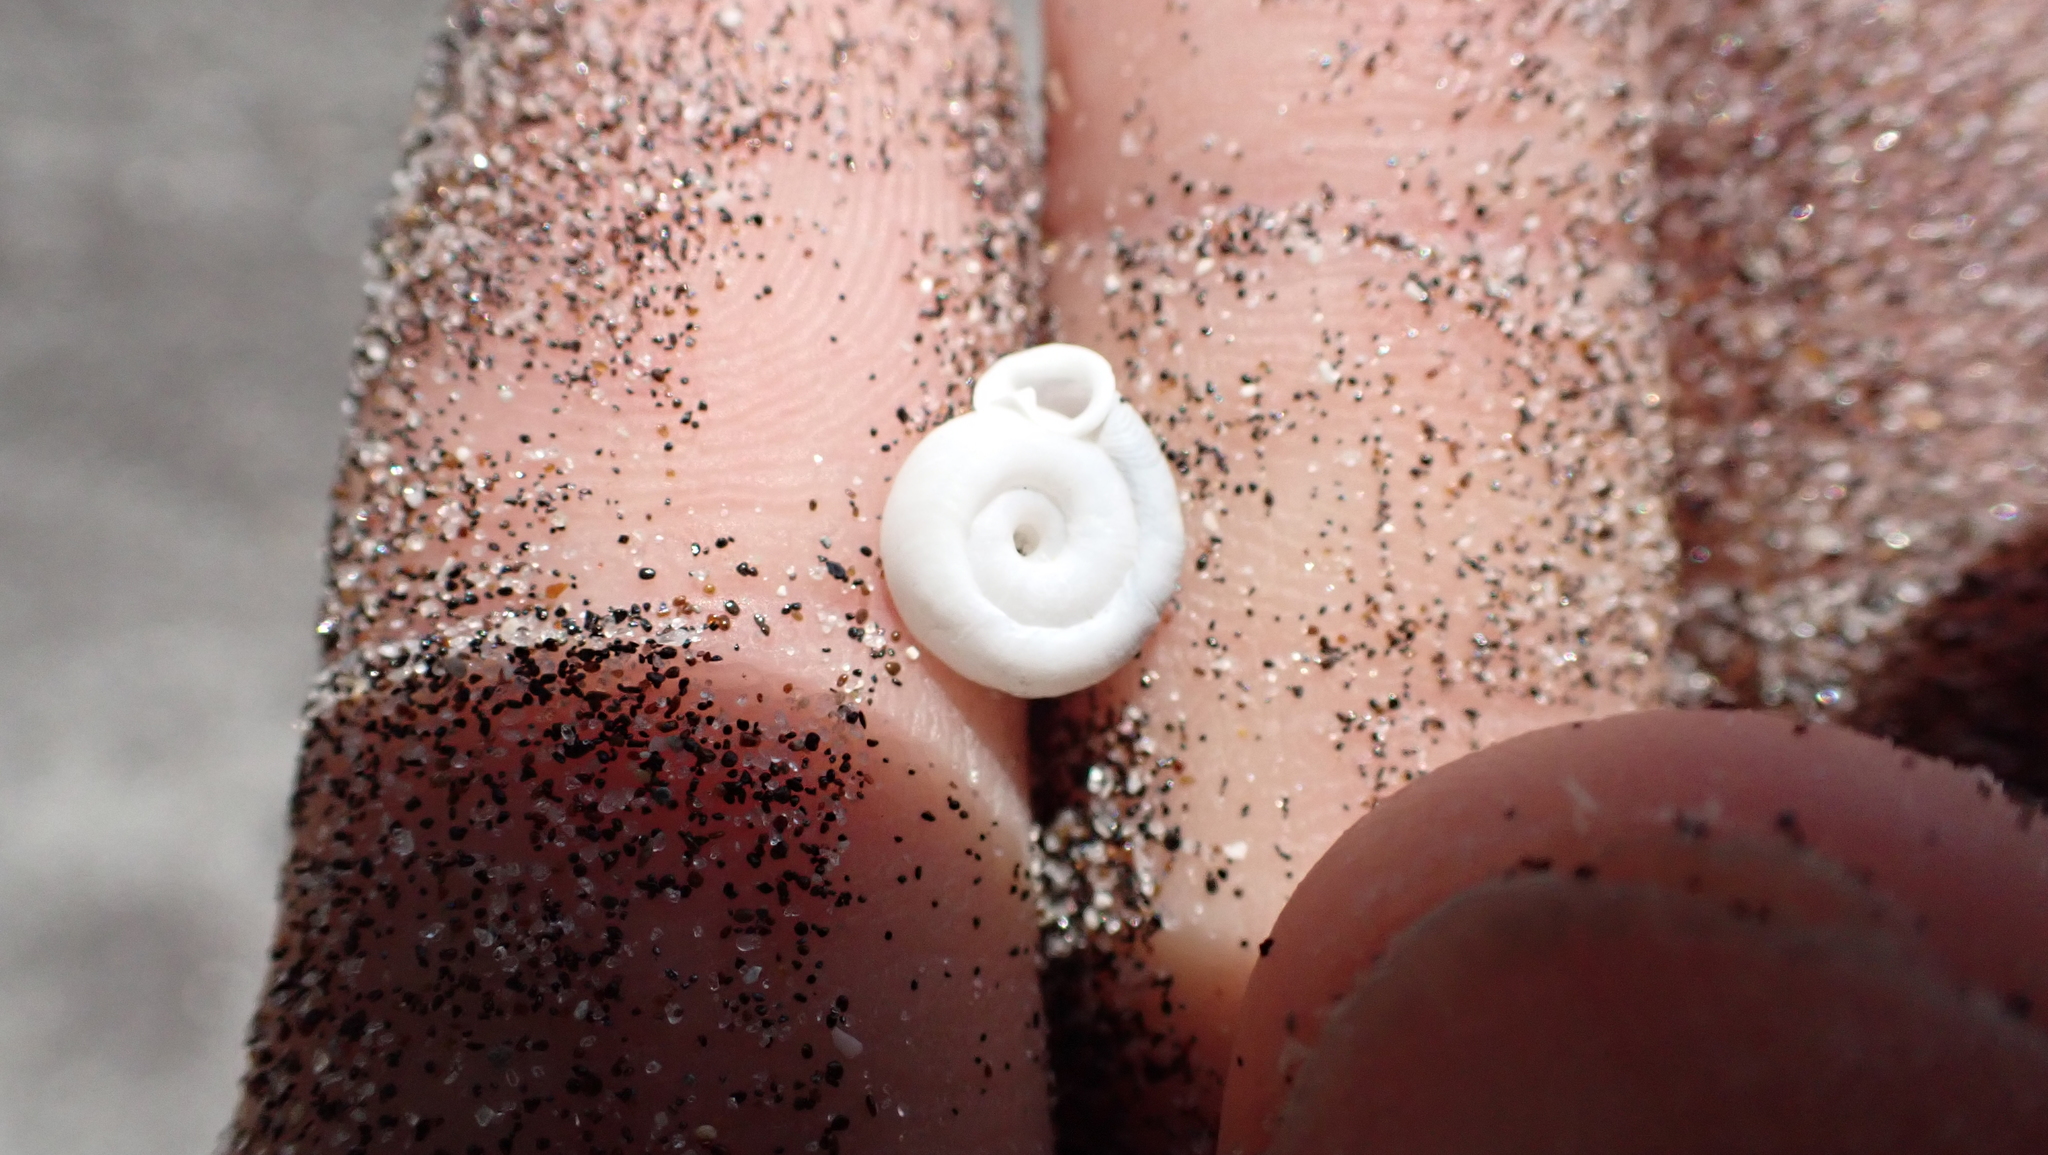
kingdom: Animalia
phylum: Mollusca
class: Gastropoda
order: Stylommatophora
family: Polygyridae
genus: Polygyra
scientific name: Polygyra cereolus
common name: Southern flatcone snail
